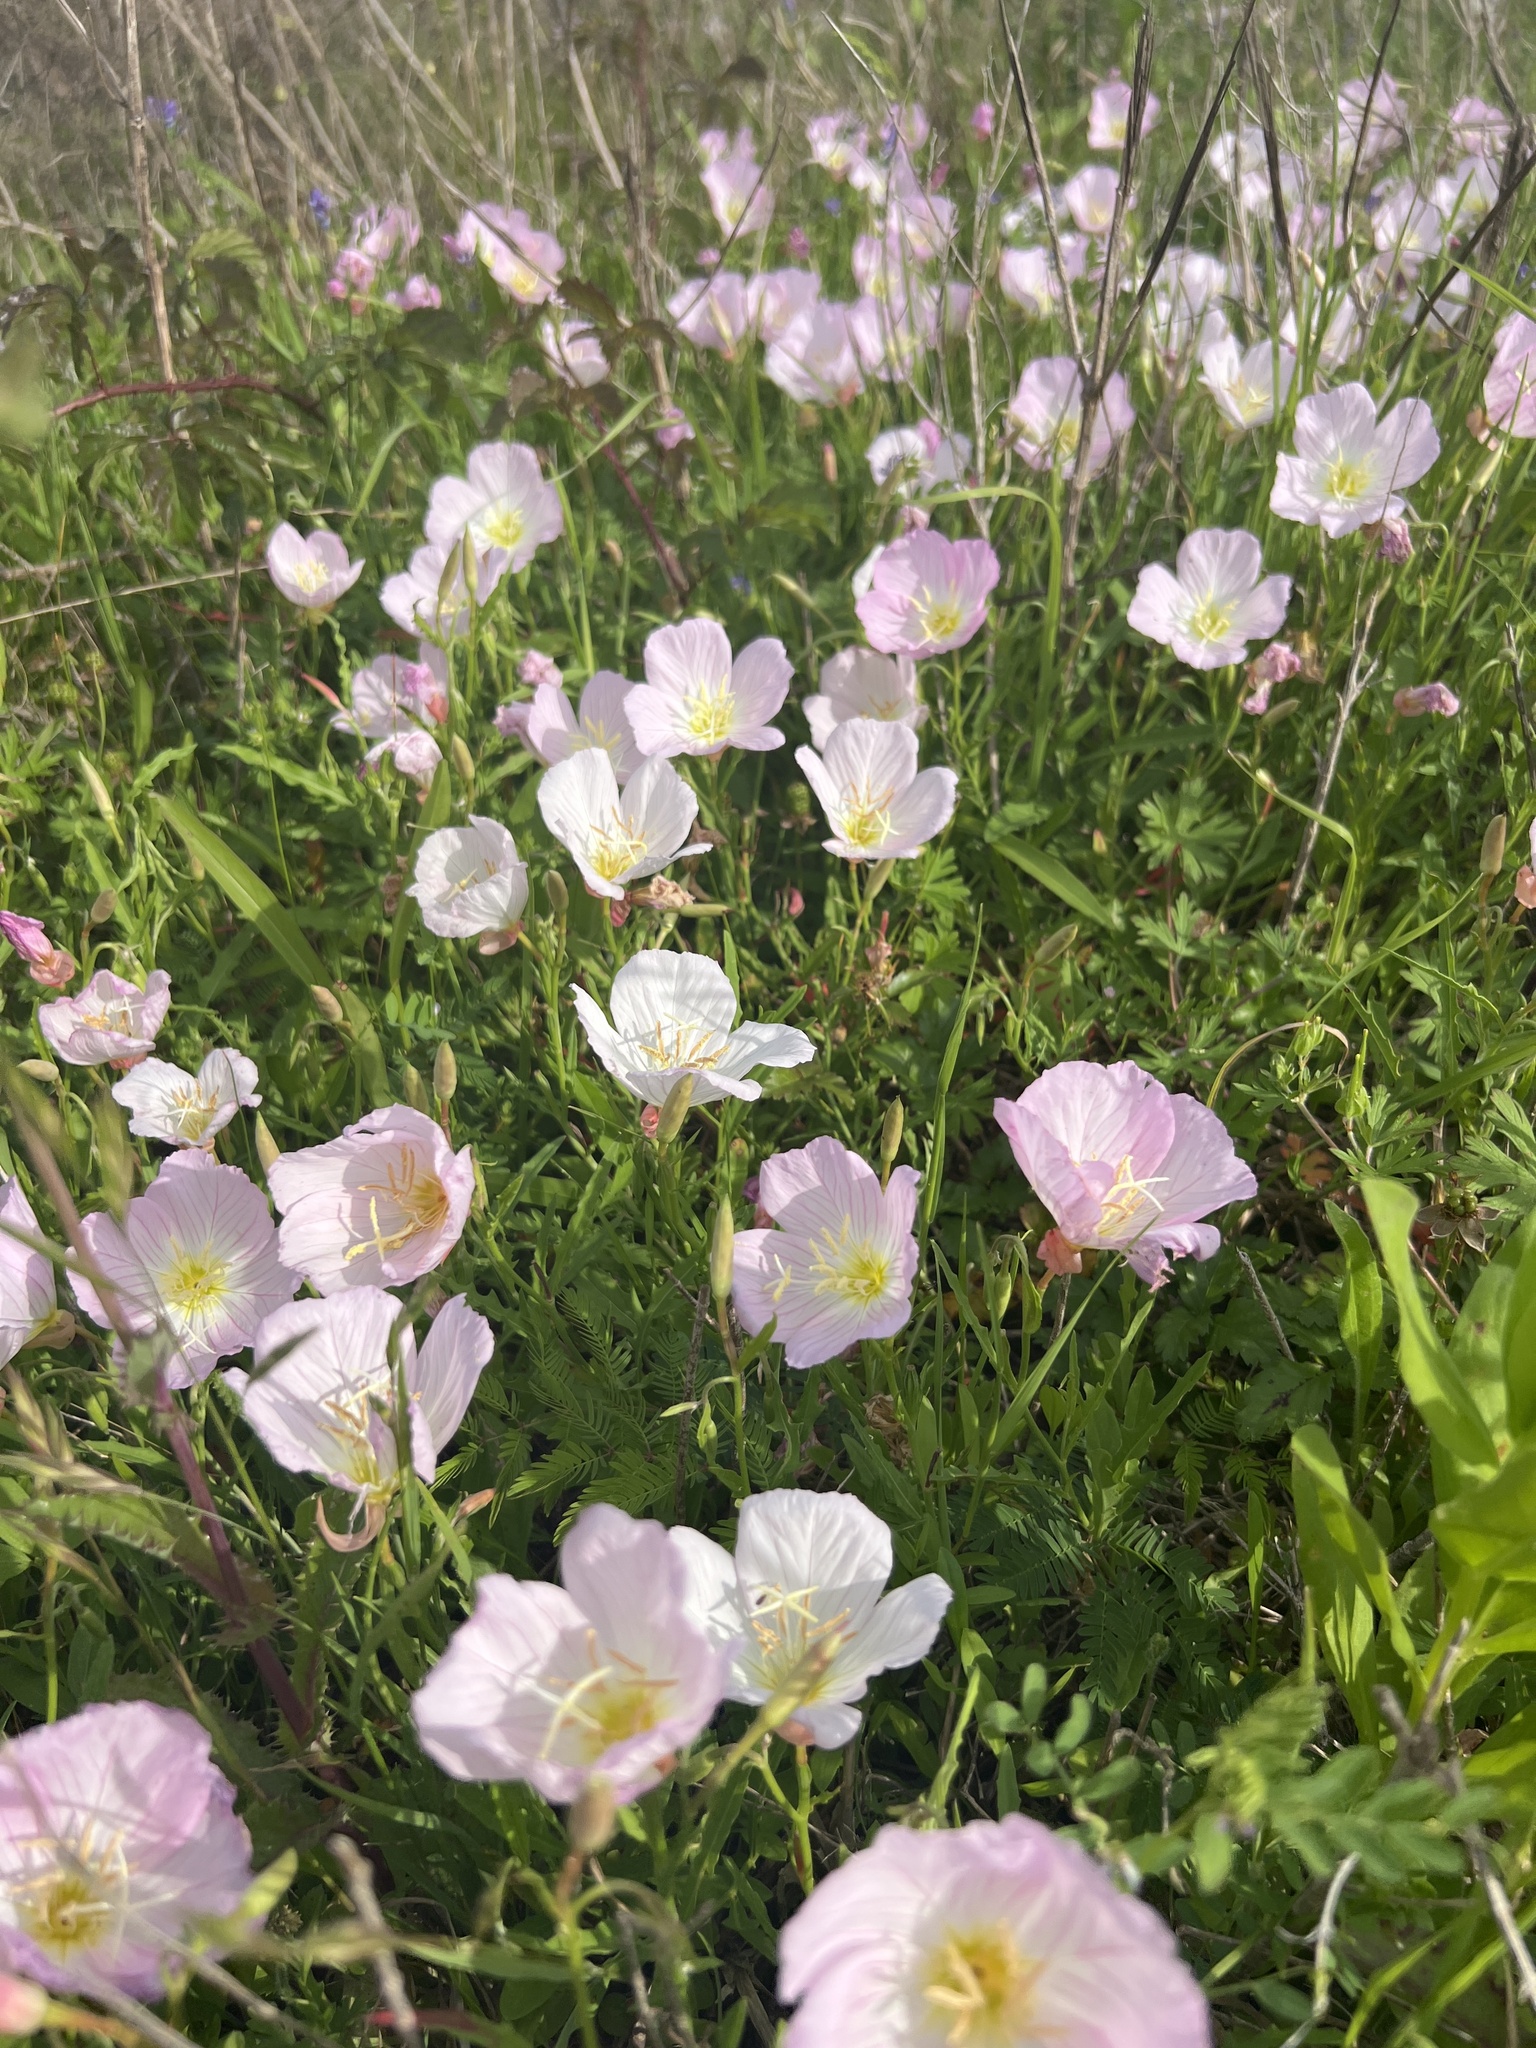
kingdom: Plantae
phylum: Tracheophyta
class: Magnoliopsida
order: Myrtales
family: Onagraceae
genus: Oenothera
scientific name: Oenothera speciosa
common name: White evening-primrose
